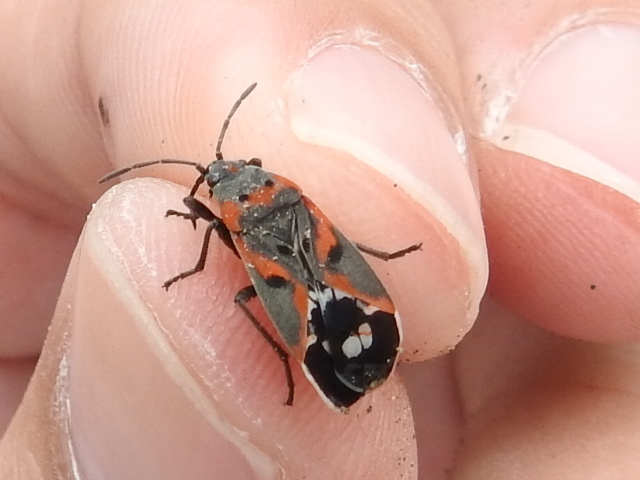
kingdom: Animalia
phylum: Arthropoda
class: Insecta
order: Hemiptera
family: Lygaeidae
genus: Lygaeus
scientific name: Lygaeus kalmii
